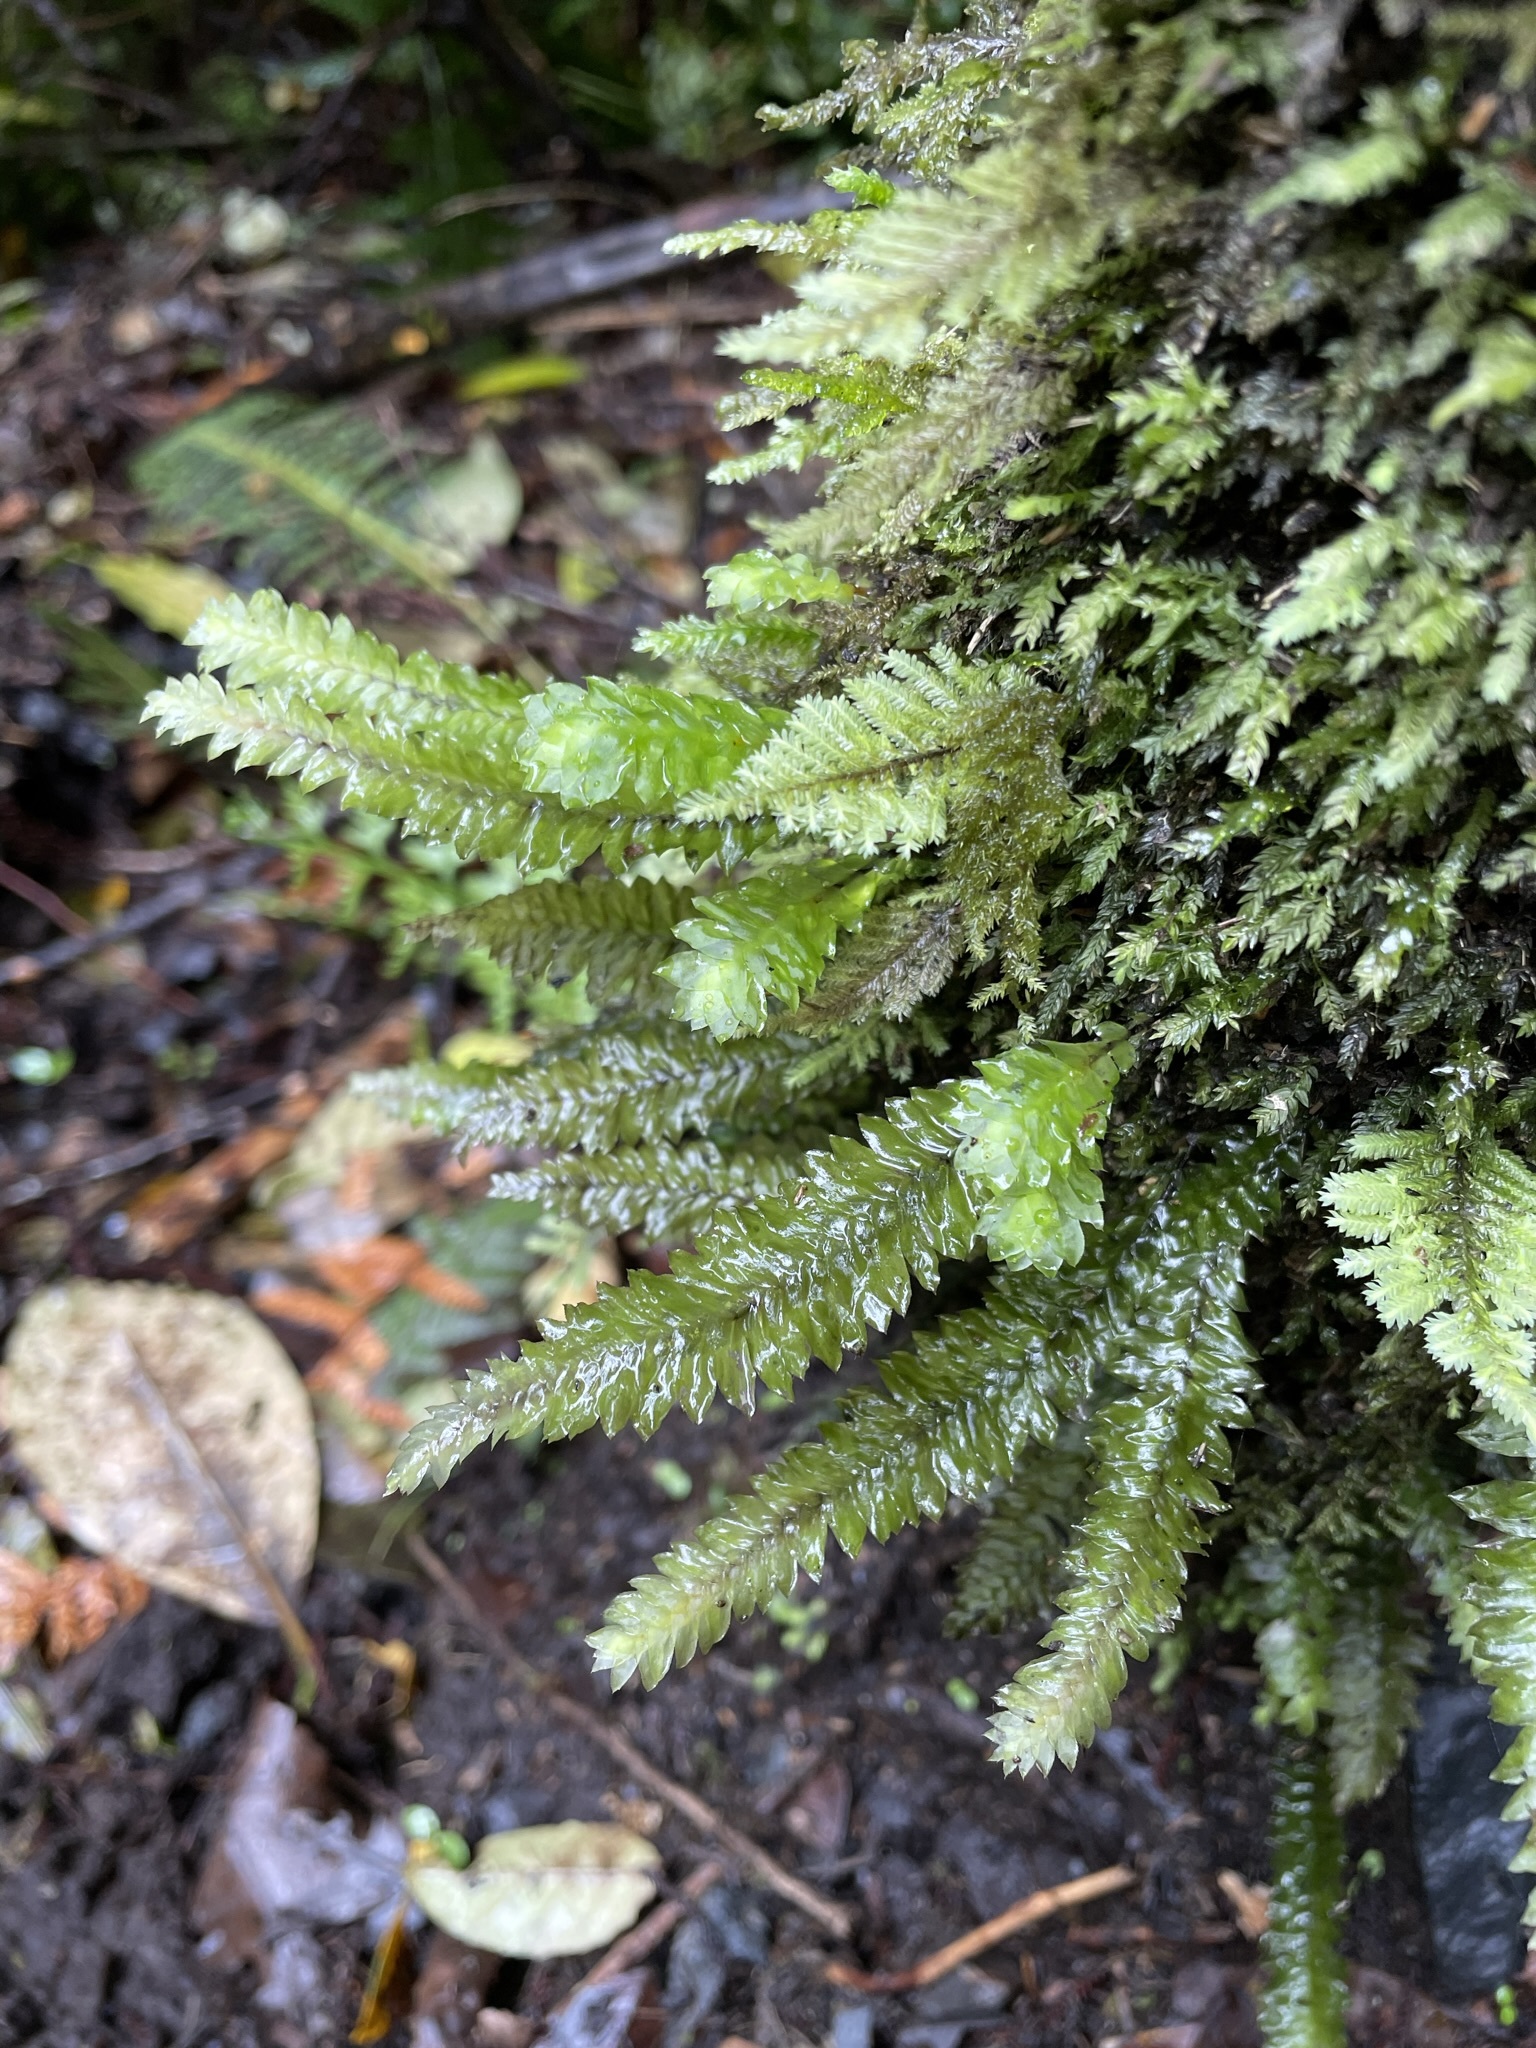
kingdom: Plantae
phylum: Bryophyta
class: Bryopsida
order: Hypopterygiales
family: Hypopterygiaceae
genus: Cyathophorum
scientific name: Cyathophorum bulbosum
